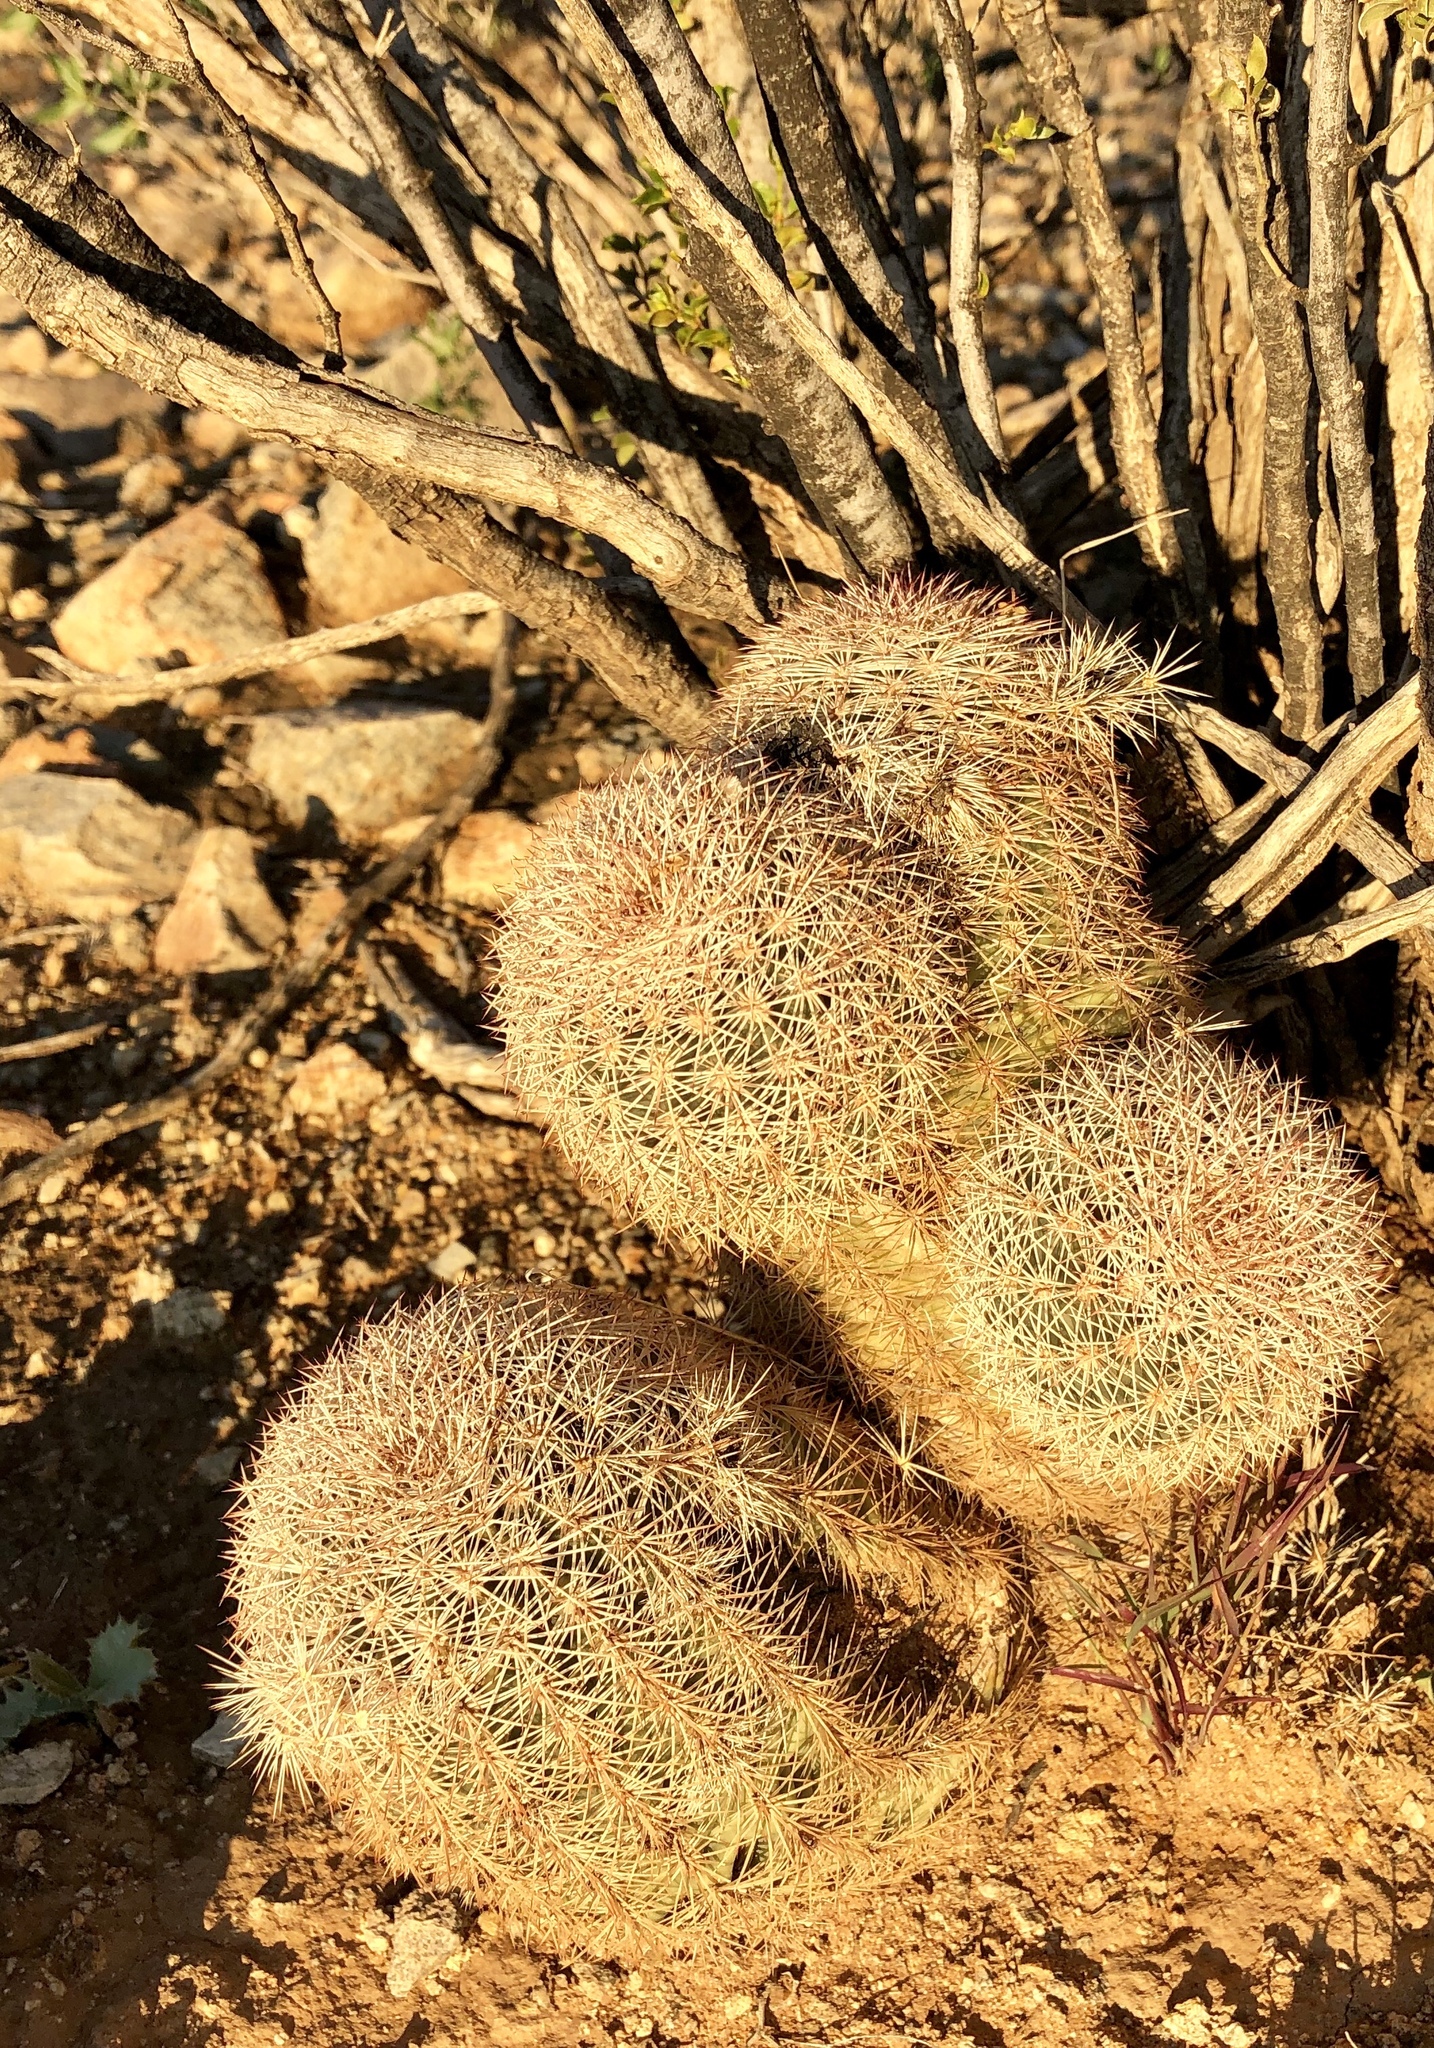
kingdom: Plantae
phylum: Tracheophyta
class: Magnoliopsida
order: Caryophyllales
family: Cactaceae
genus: Echinocereus
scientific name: Echinocereus dasyacanthus
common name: Spiny hedgehog cactus
